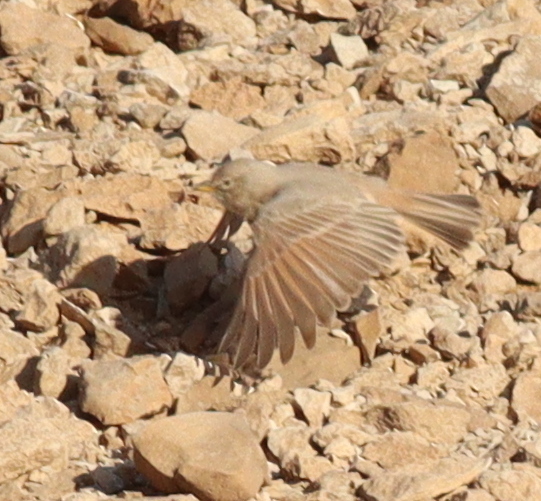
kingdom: Animalia
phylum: Chordata
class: Aves
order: Passeriformes
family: Alaudidae
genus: Ammomanes
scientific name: Ammomanes deserti
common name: Desert lark
